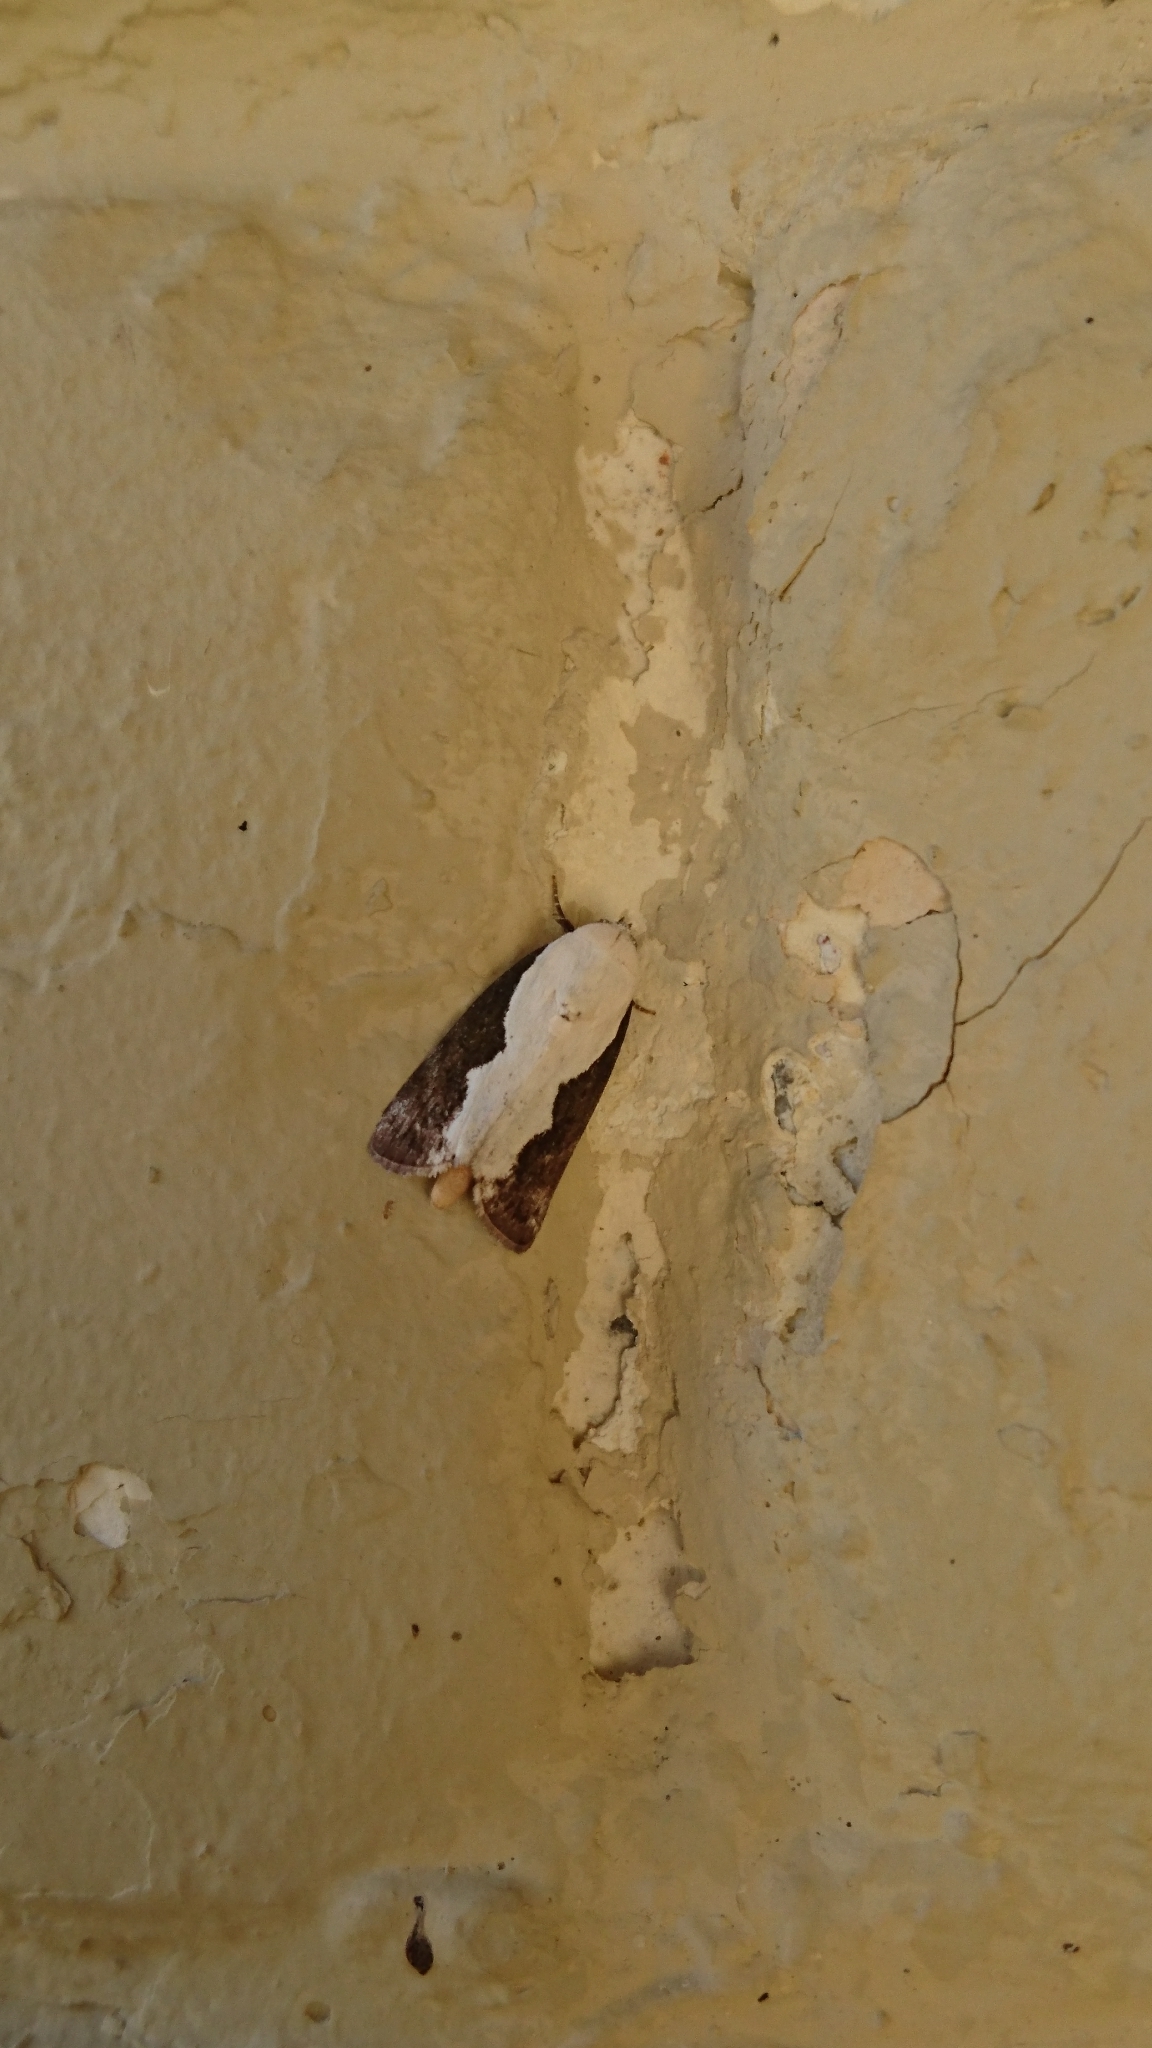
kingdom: Animalia
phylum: Arthropoda
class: Insecta
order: Lepidoptera
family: Nolidae
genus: Tathothripa
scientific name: Tathothripa continua
